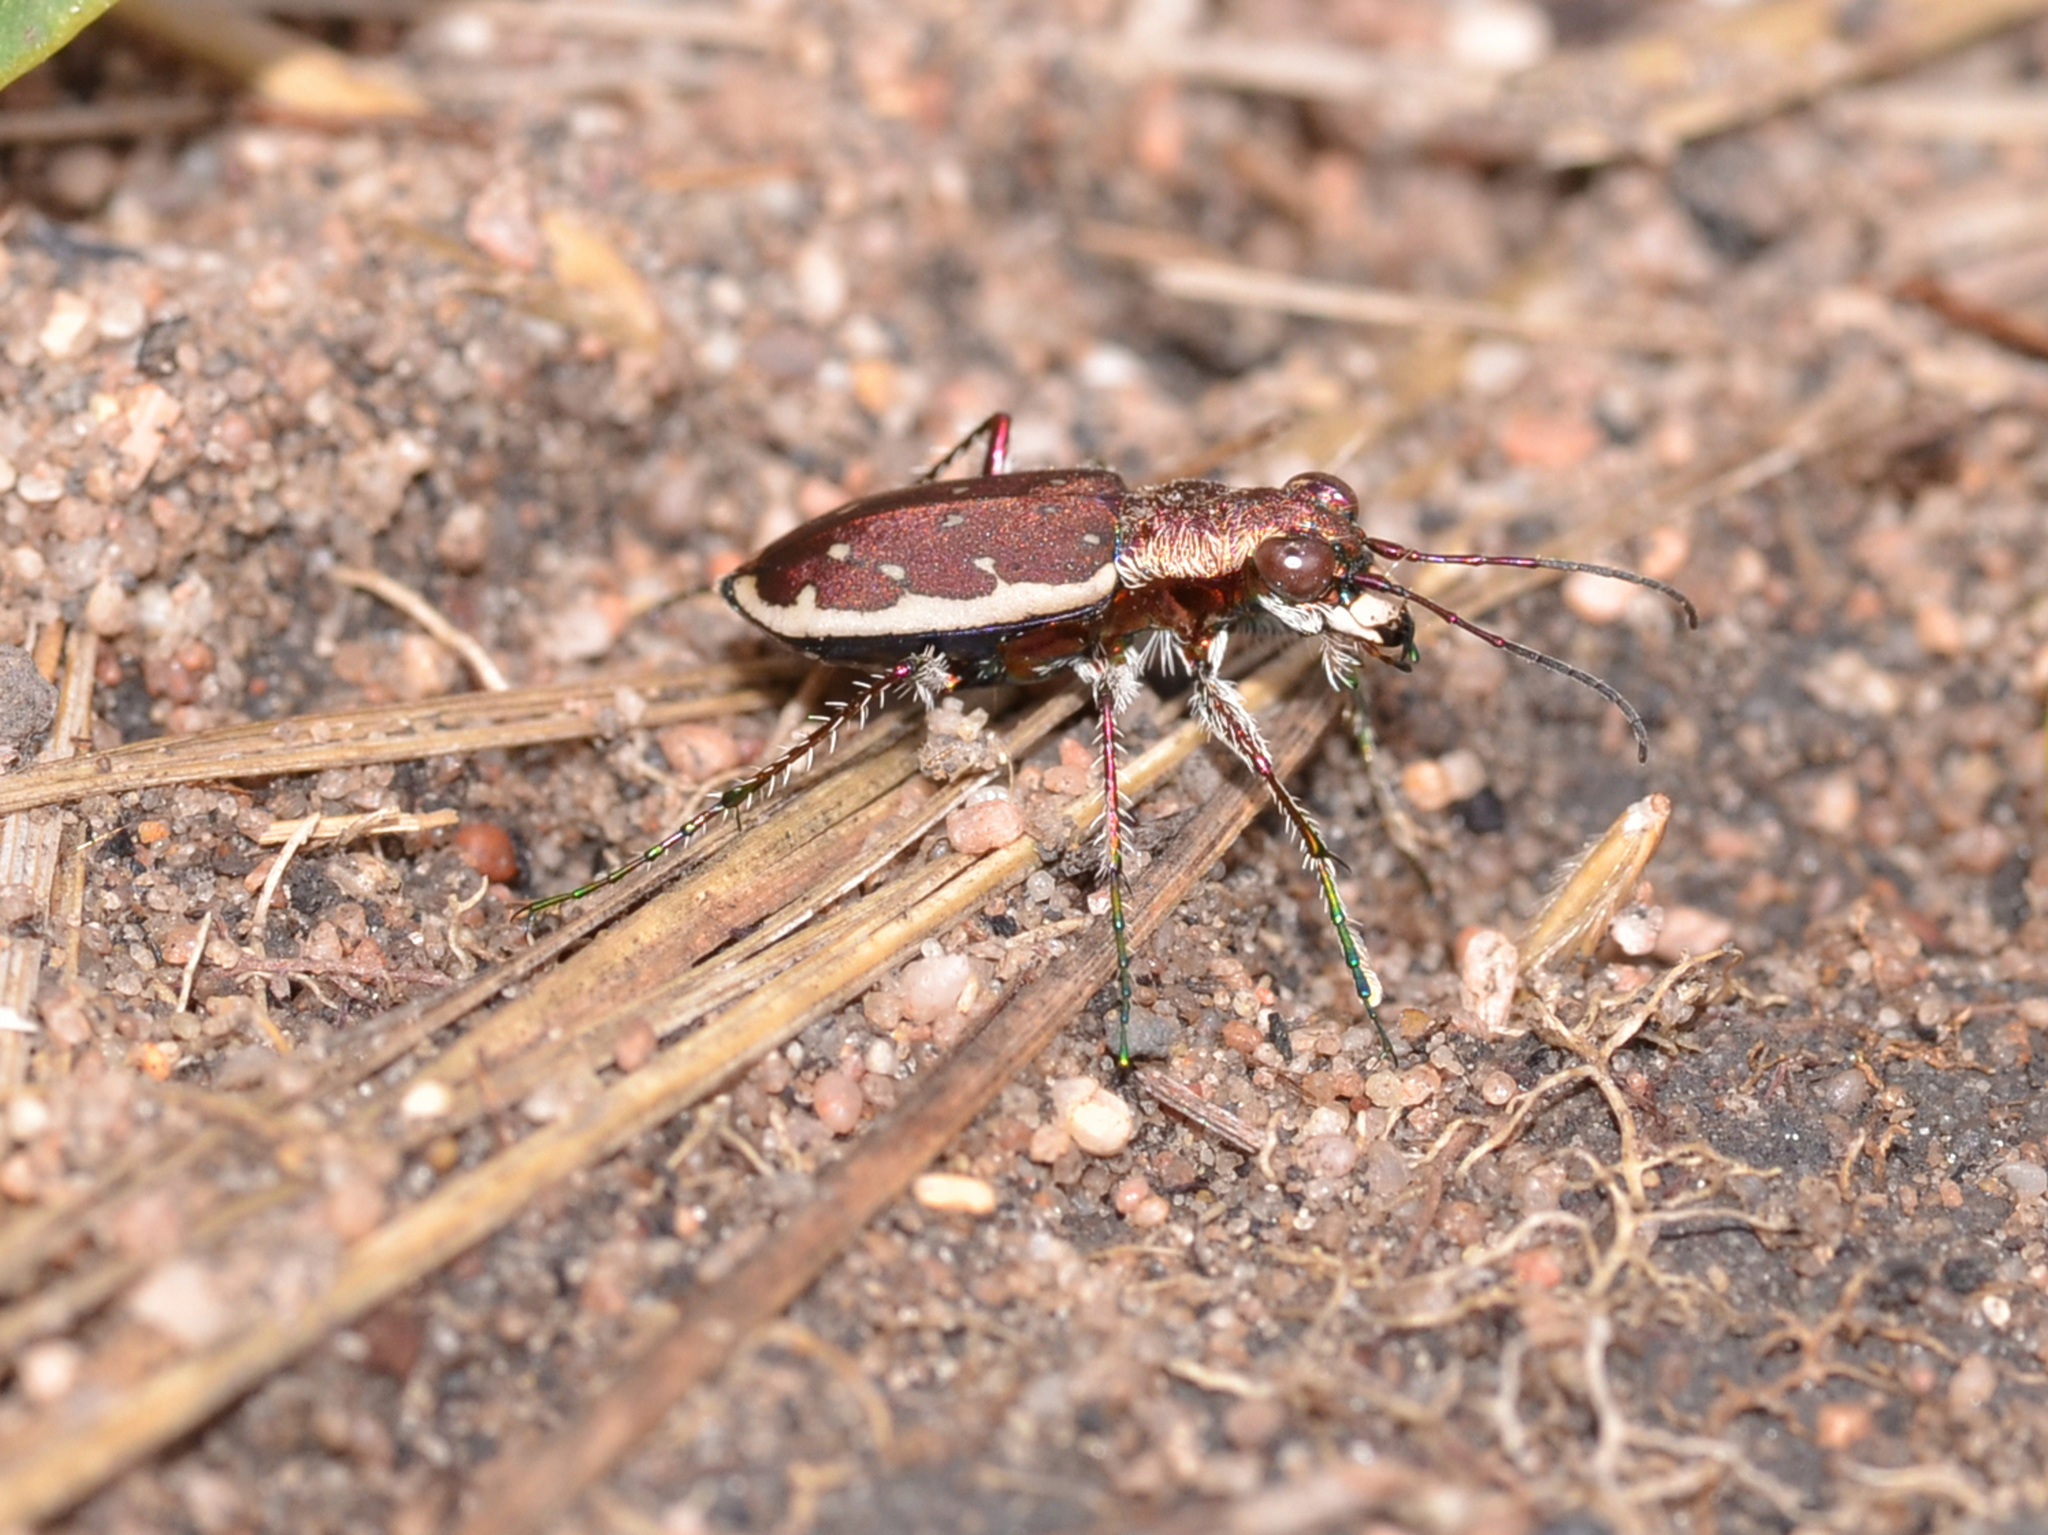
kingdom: Animalia
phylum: Arthropoda
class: Insecta
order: Coleoptera
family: Carabidae
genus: Lophyra
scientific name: Lophyra uncivittata
